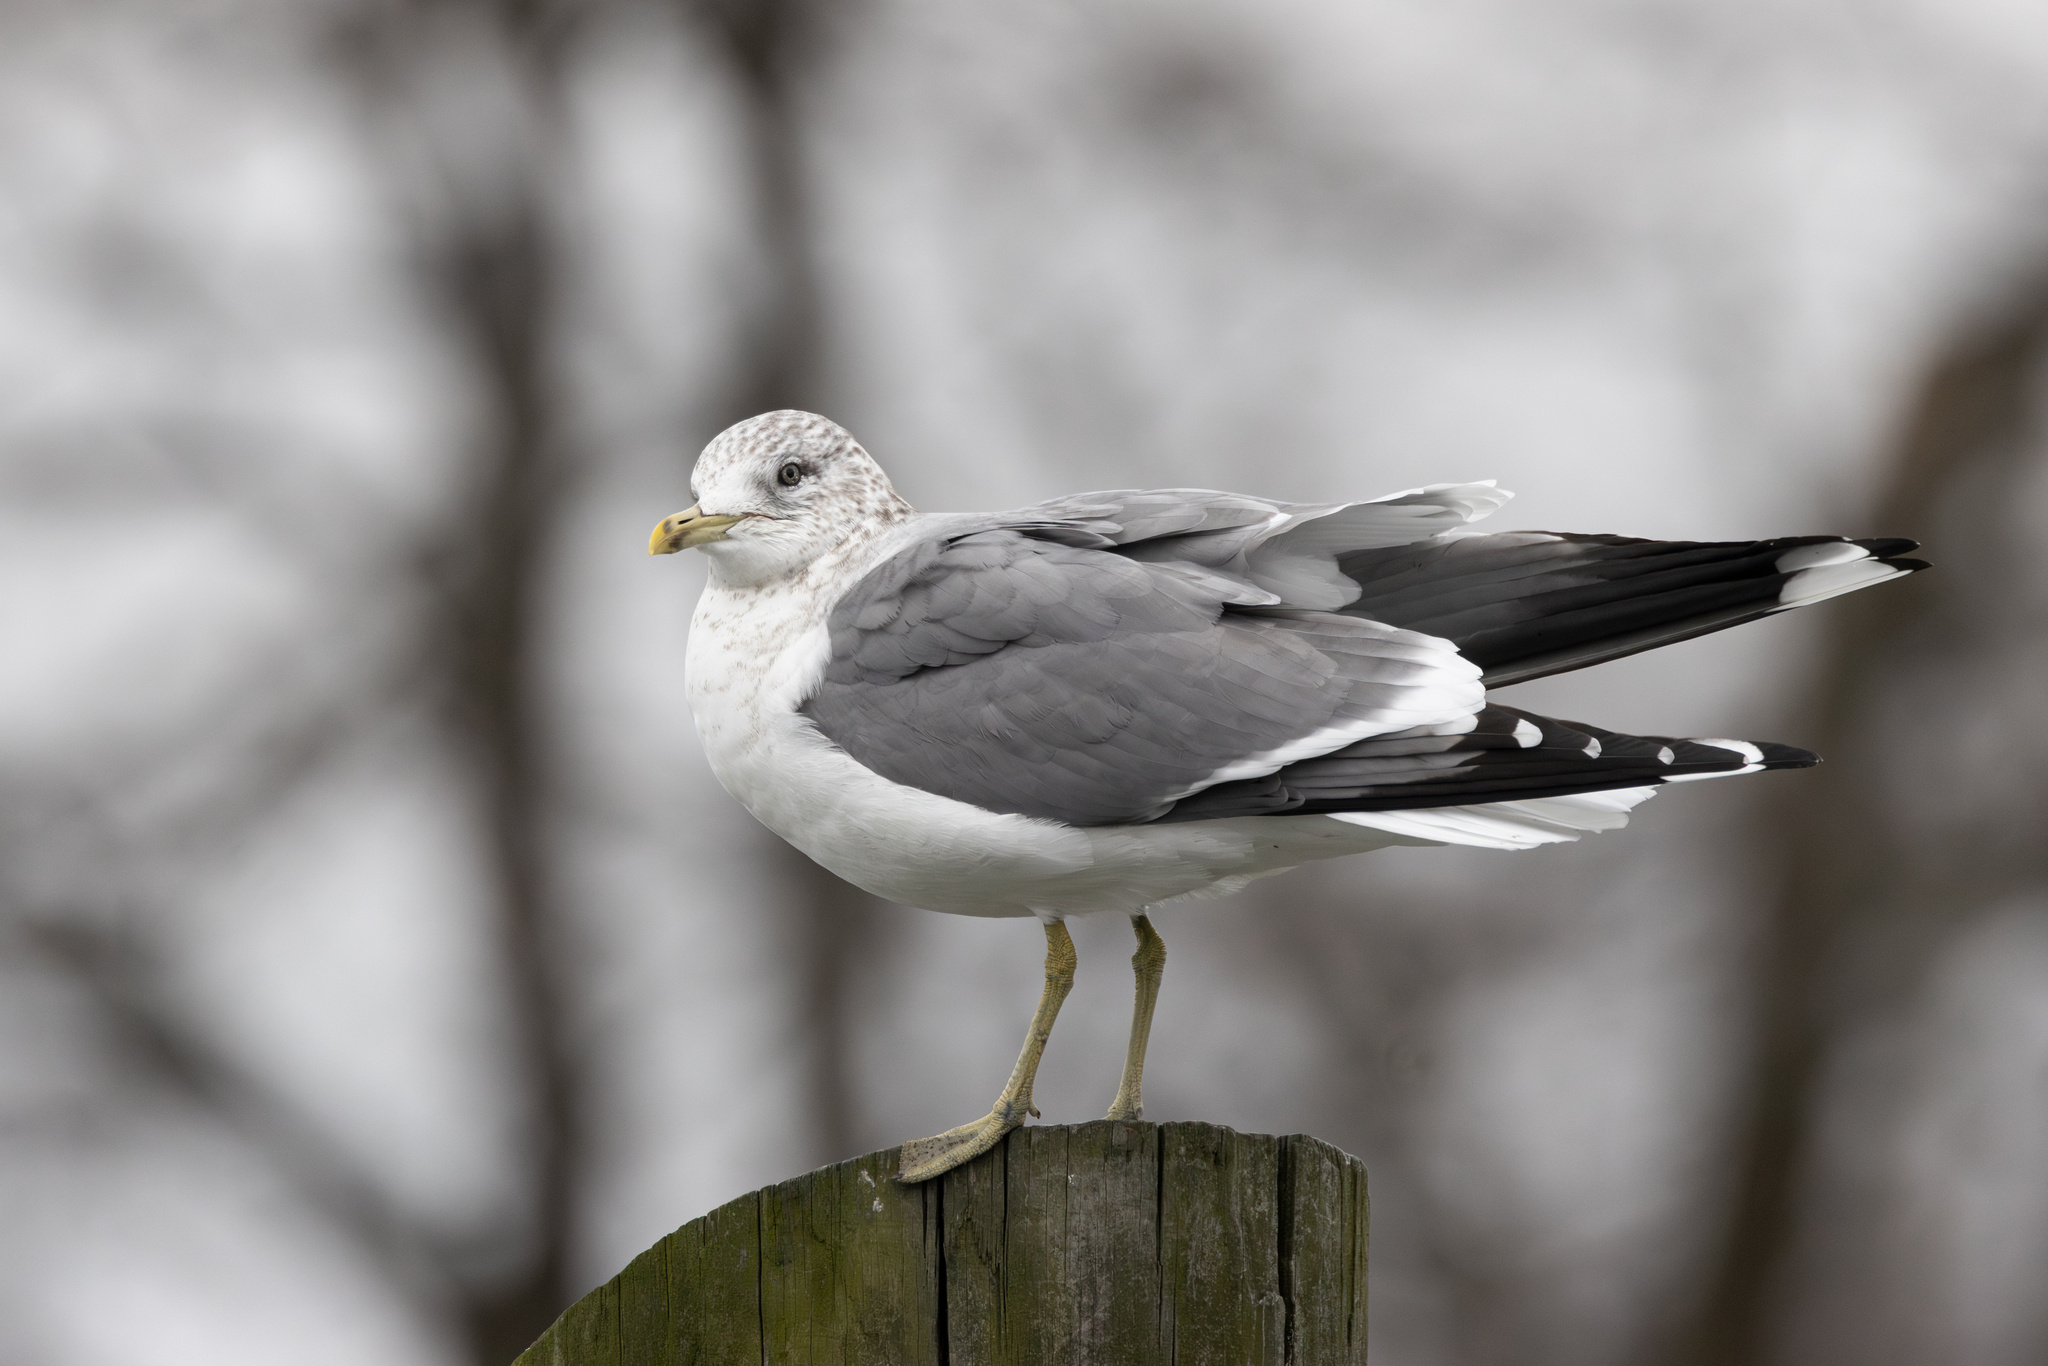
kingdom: Animalia
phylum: Chordata
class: Aves
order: Charadriiformes
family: Laridae
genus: Larus
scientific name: Larus canus
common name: Mew gull
